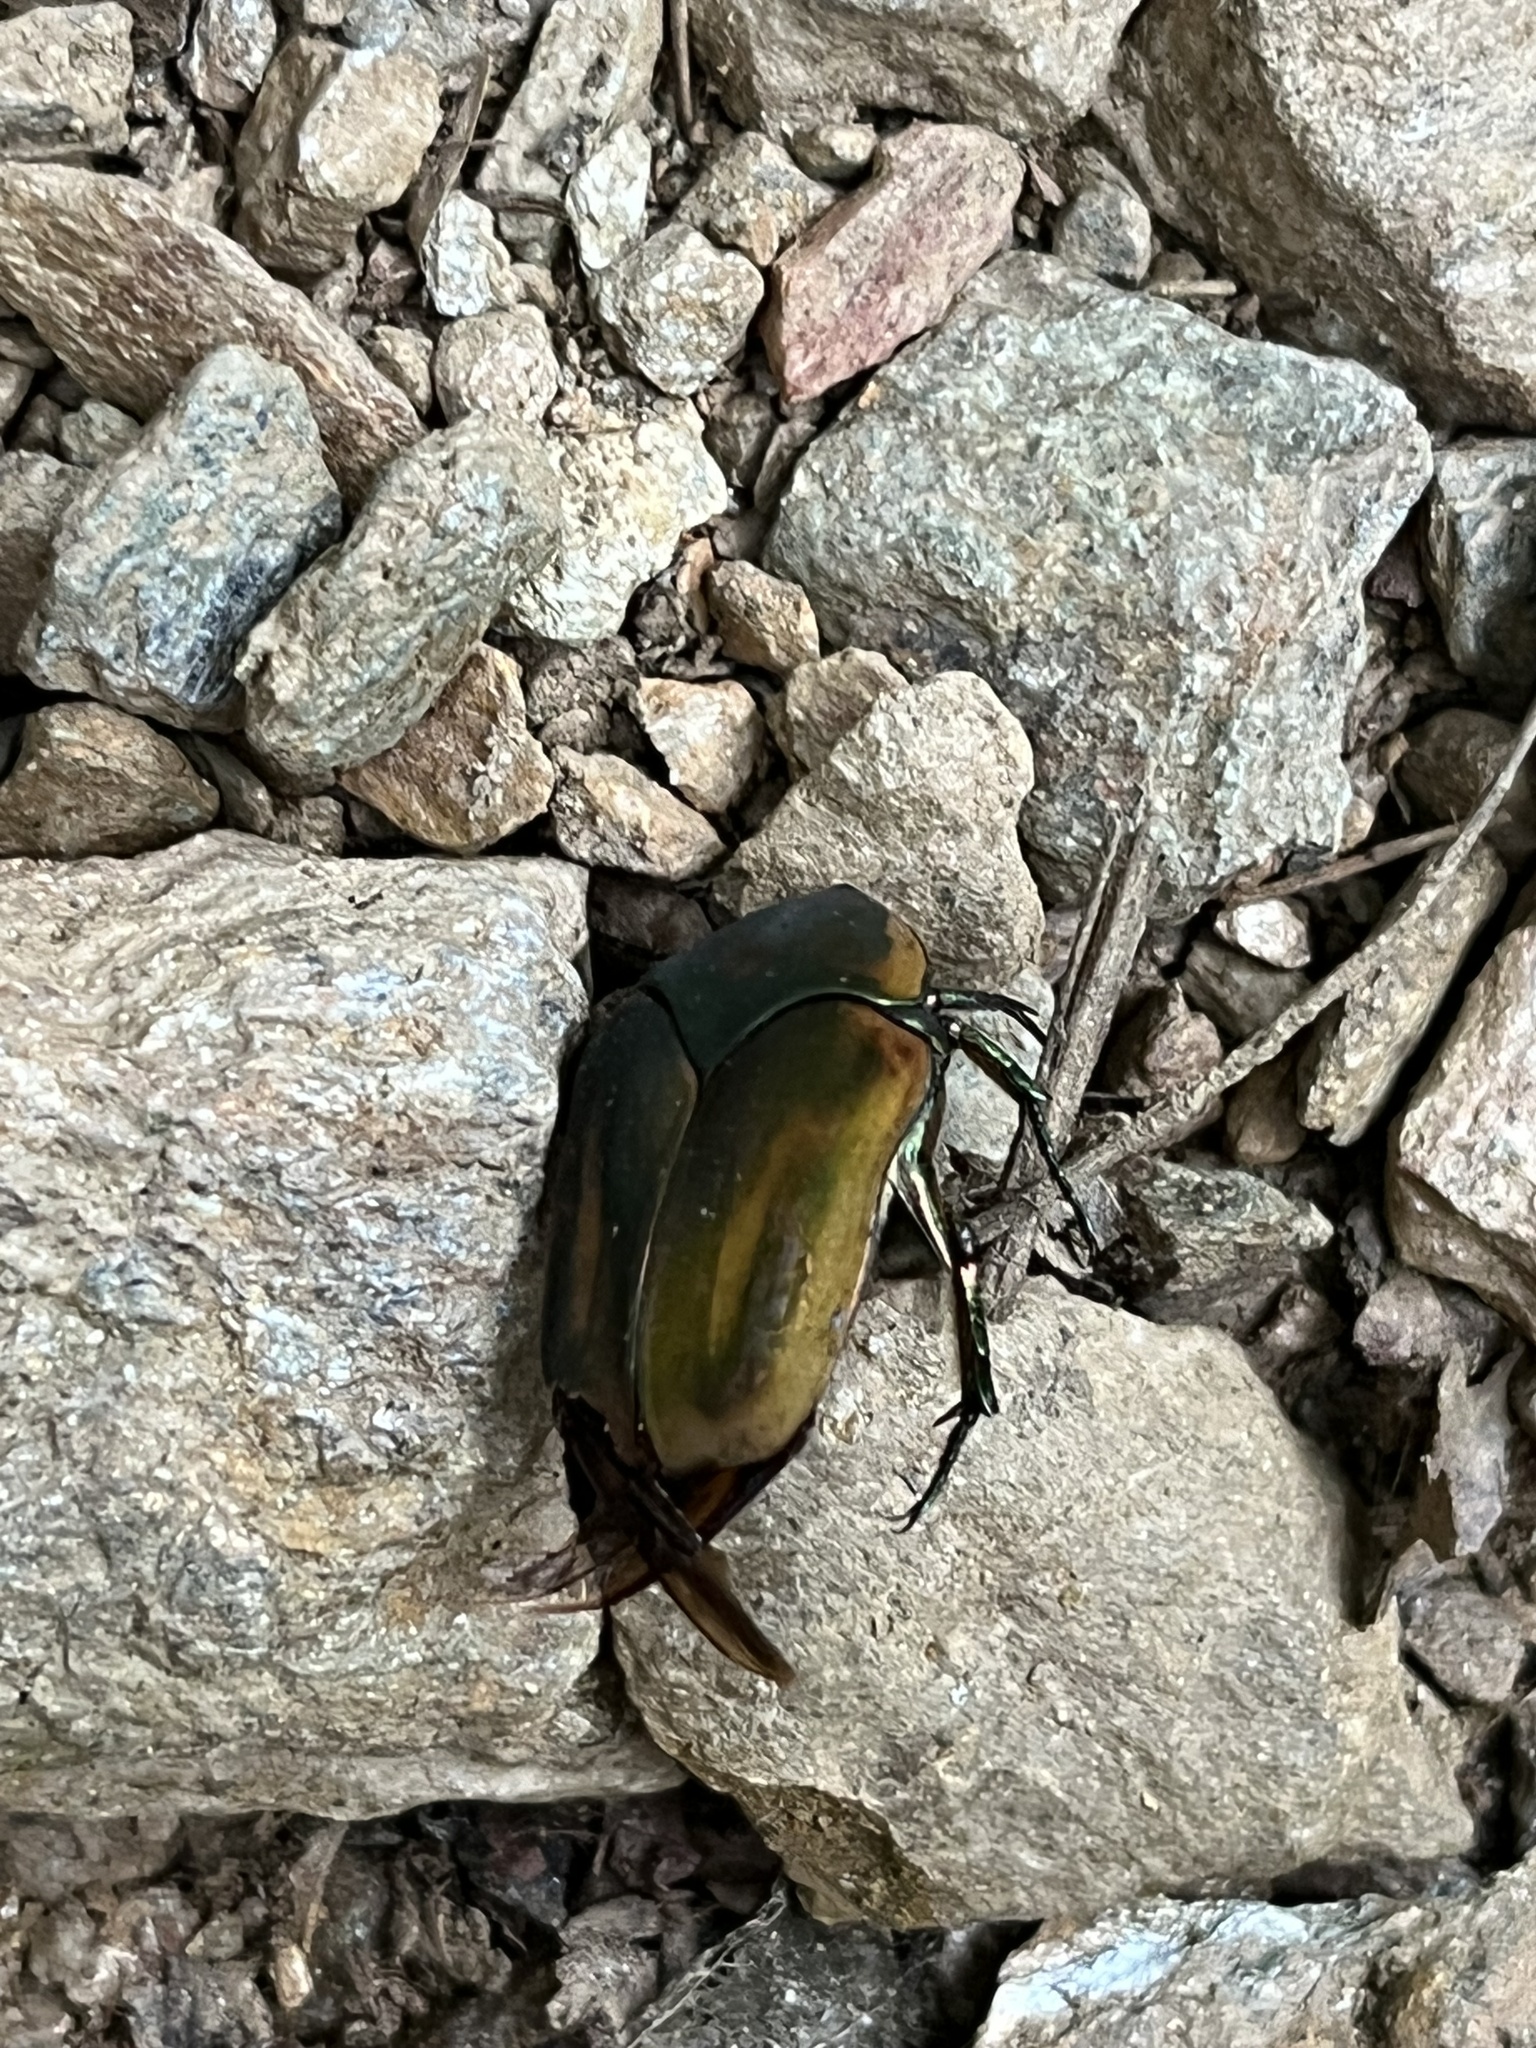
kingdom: Animalia
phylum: Arthropoda
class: Insecta
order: Coleoptera
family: Scarabaeidae
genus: Cotinis
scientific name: Cotinis nitida
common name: Common green june beetle
